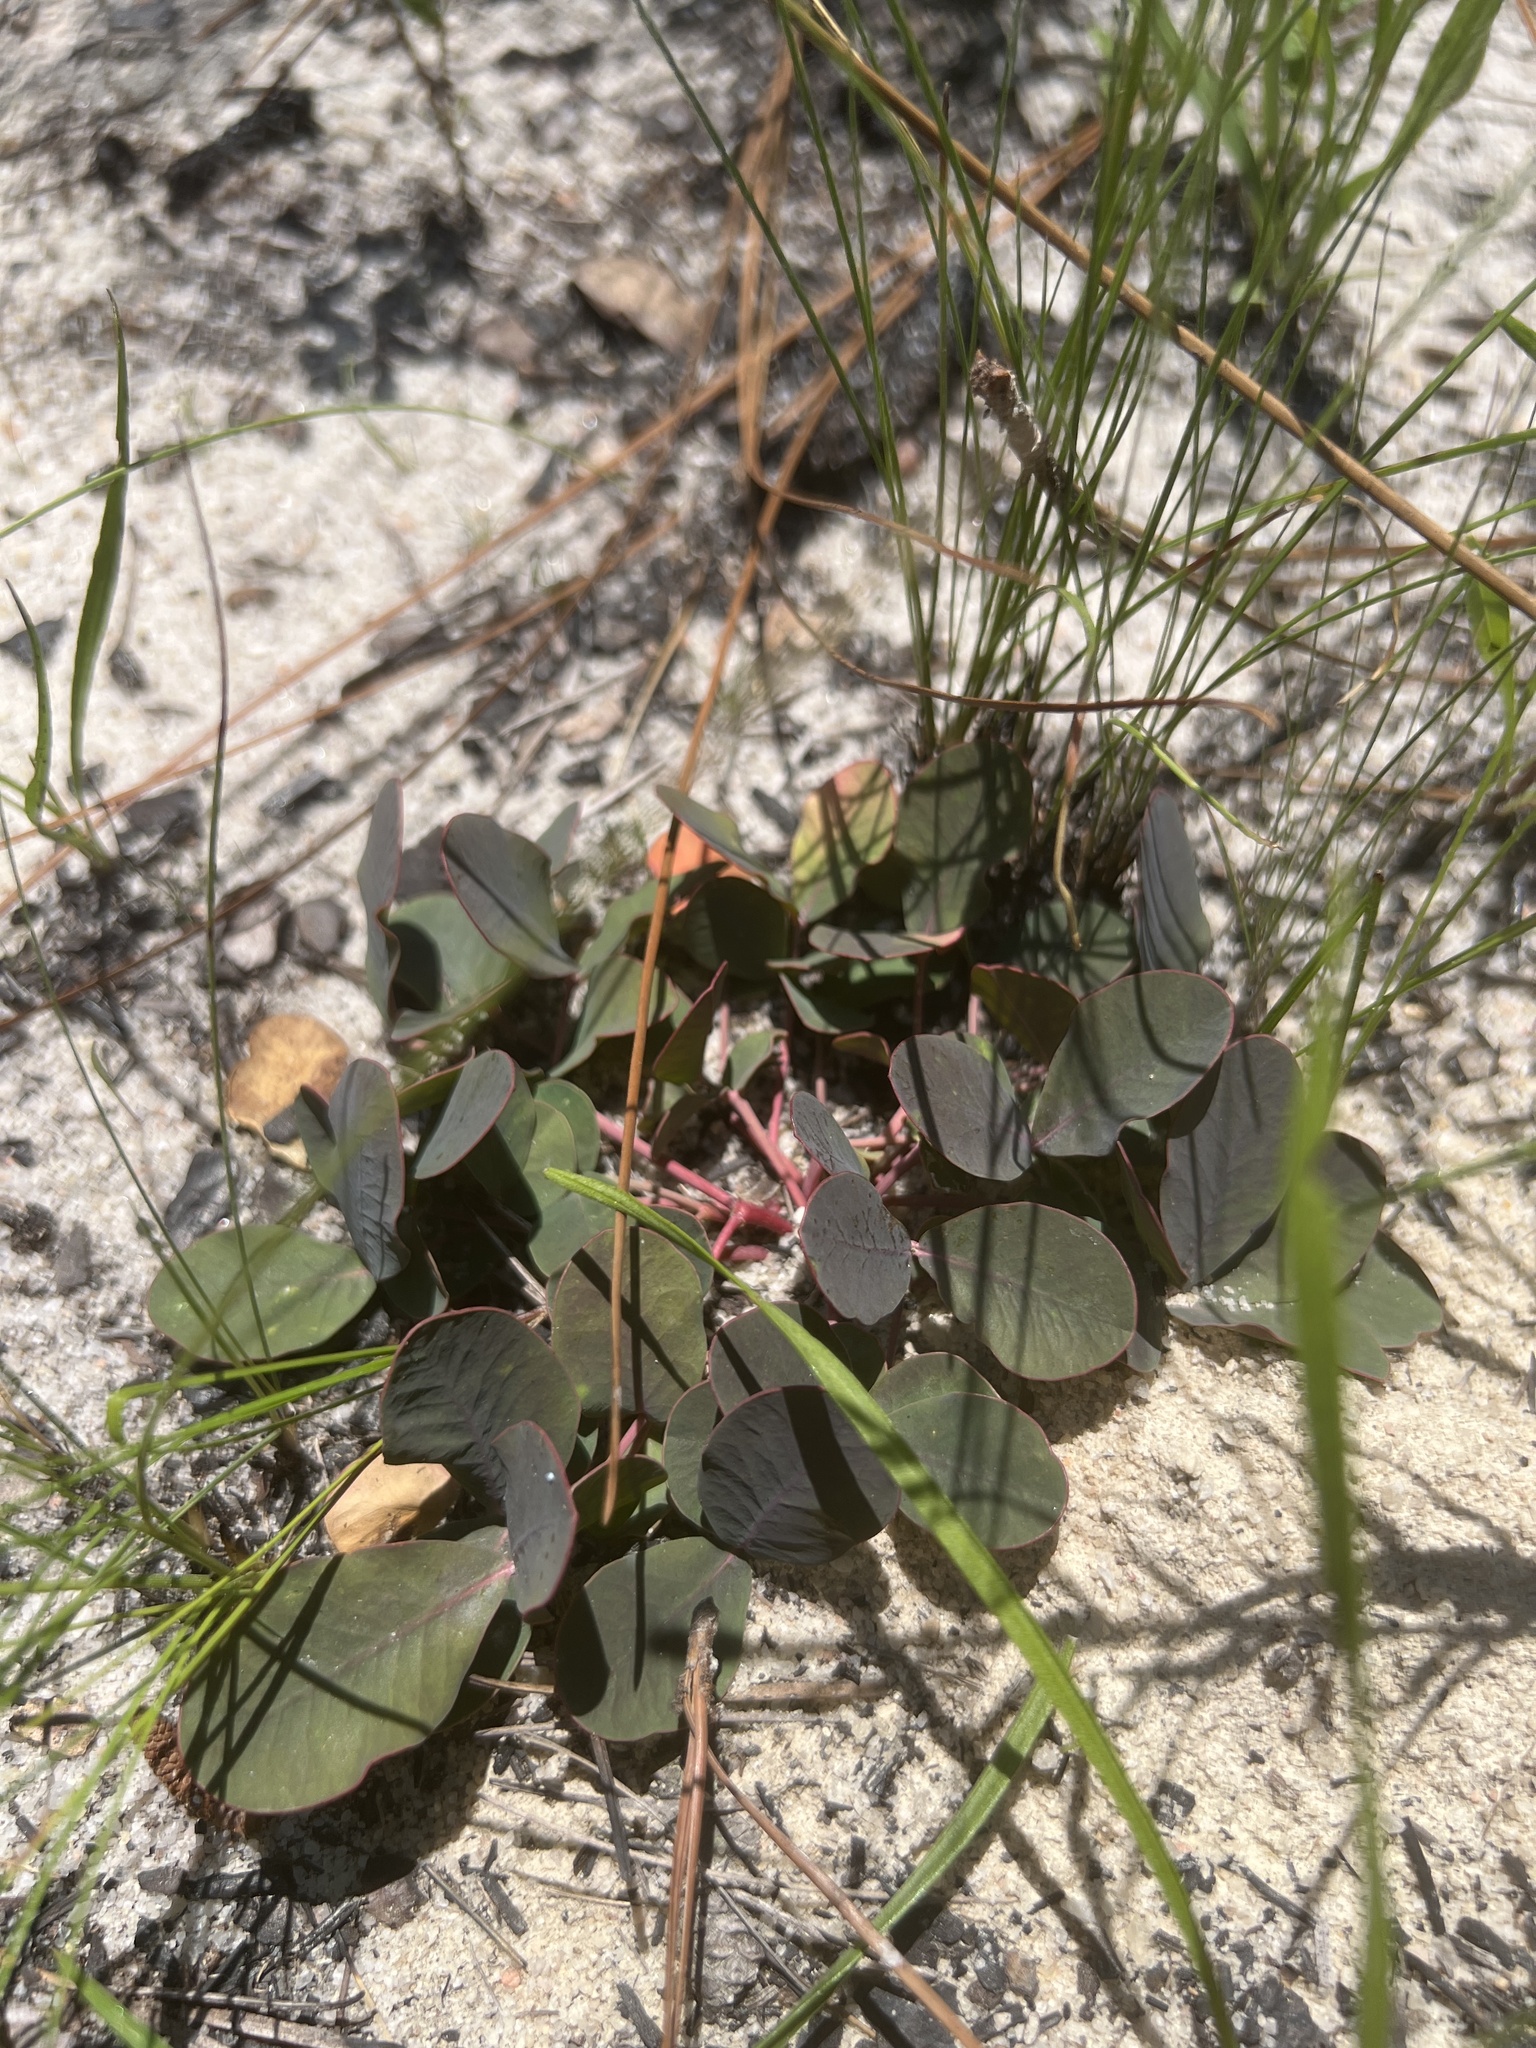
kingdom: Plantae
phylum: Tracheophyta
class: Magnoliopsida
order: Malpighiales
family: Euphorbiaceae
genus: Euphorbia
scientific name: Euphorbia ipecacuanhae
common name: Carolina ipecac
